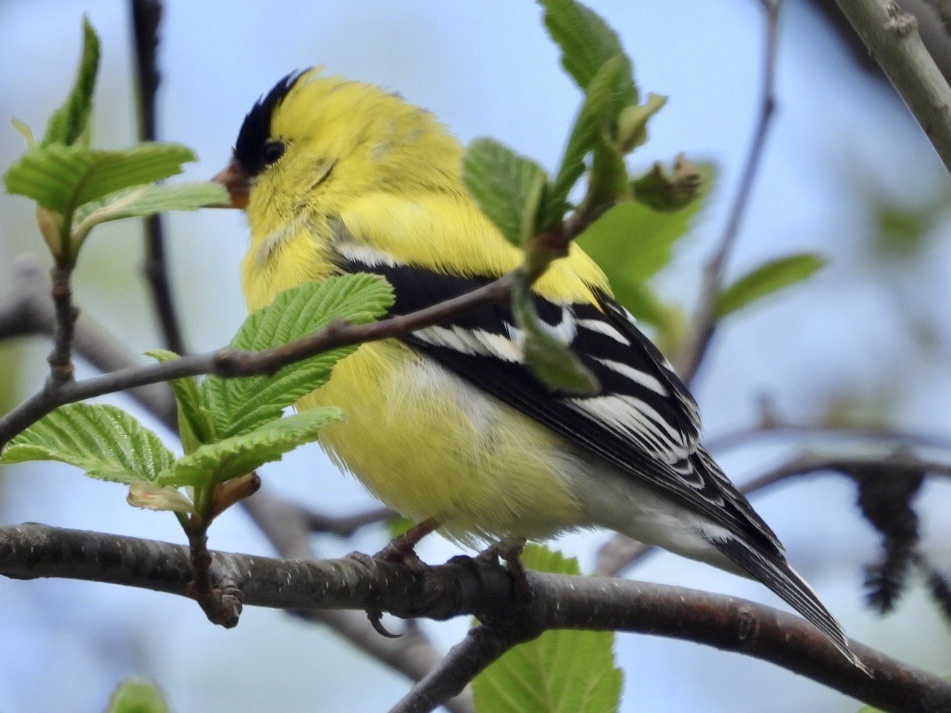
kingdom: Animalia
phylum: Chordata
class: Aves
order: Passeriformes
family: Fringillidae
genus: Spinus
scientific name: Spinus tristis
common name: American goldfinch
